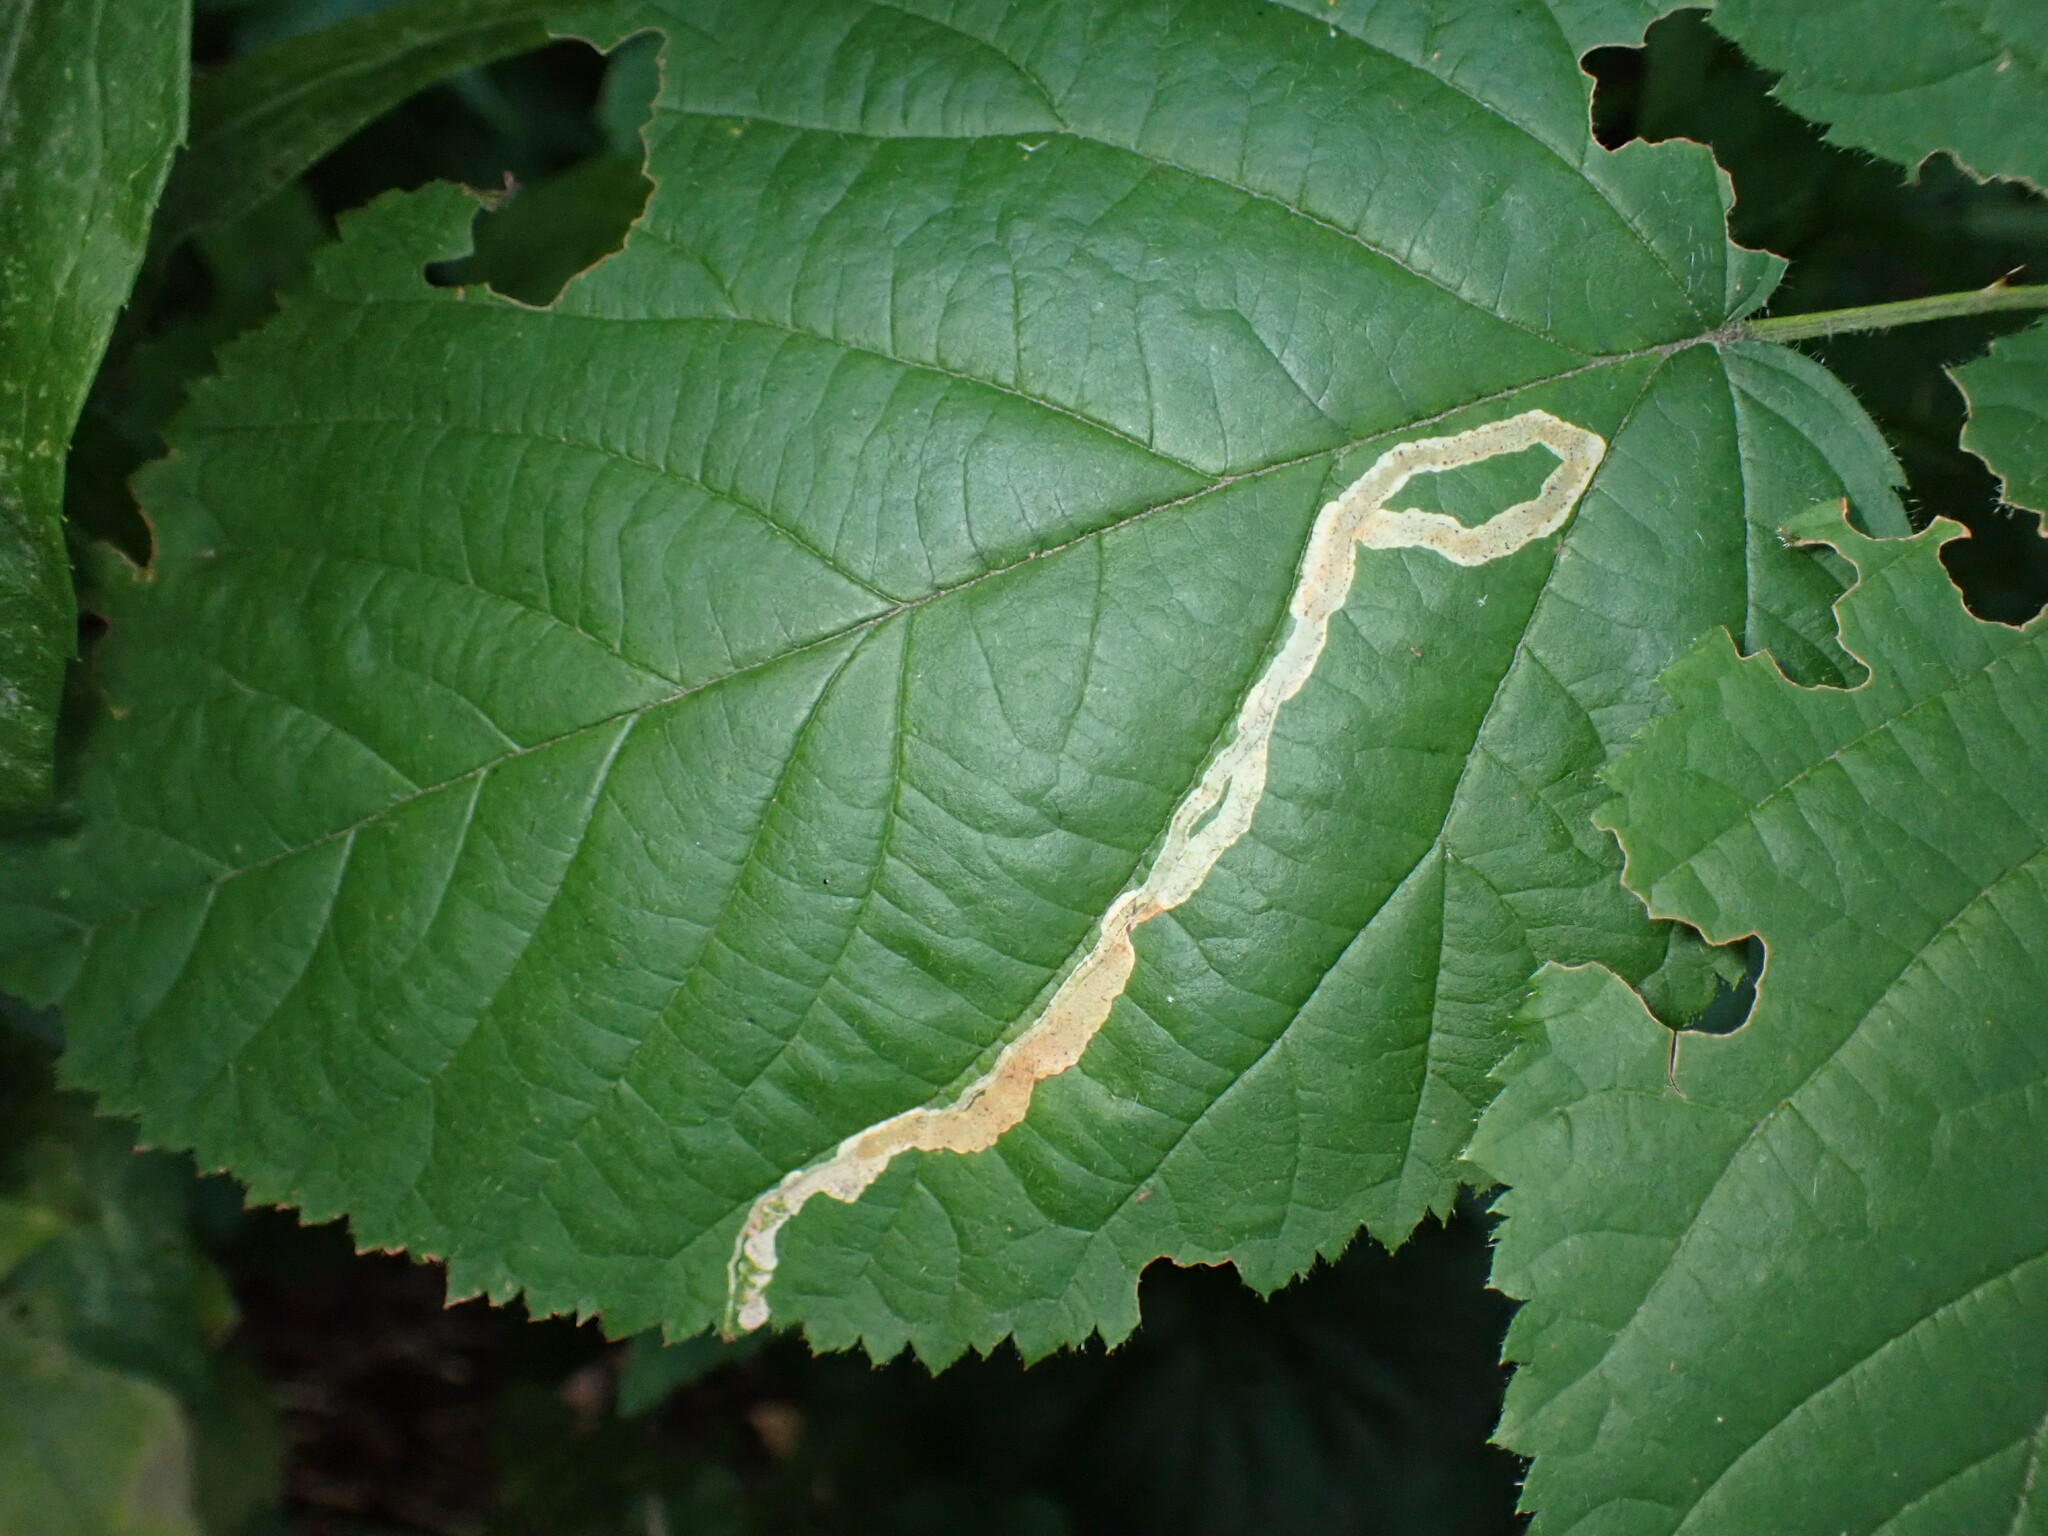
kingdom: Animalia
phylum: Arthropoda
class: Insecta
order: Diptera
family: Agromyzidae
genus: Agromyza
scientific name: Agromyza vockerothi
